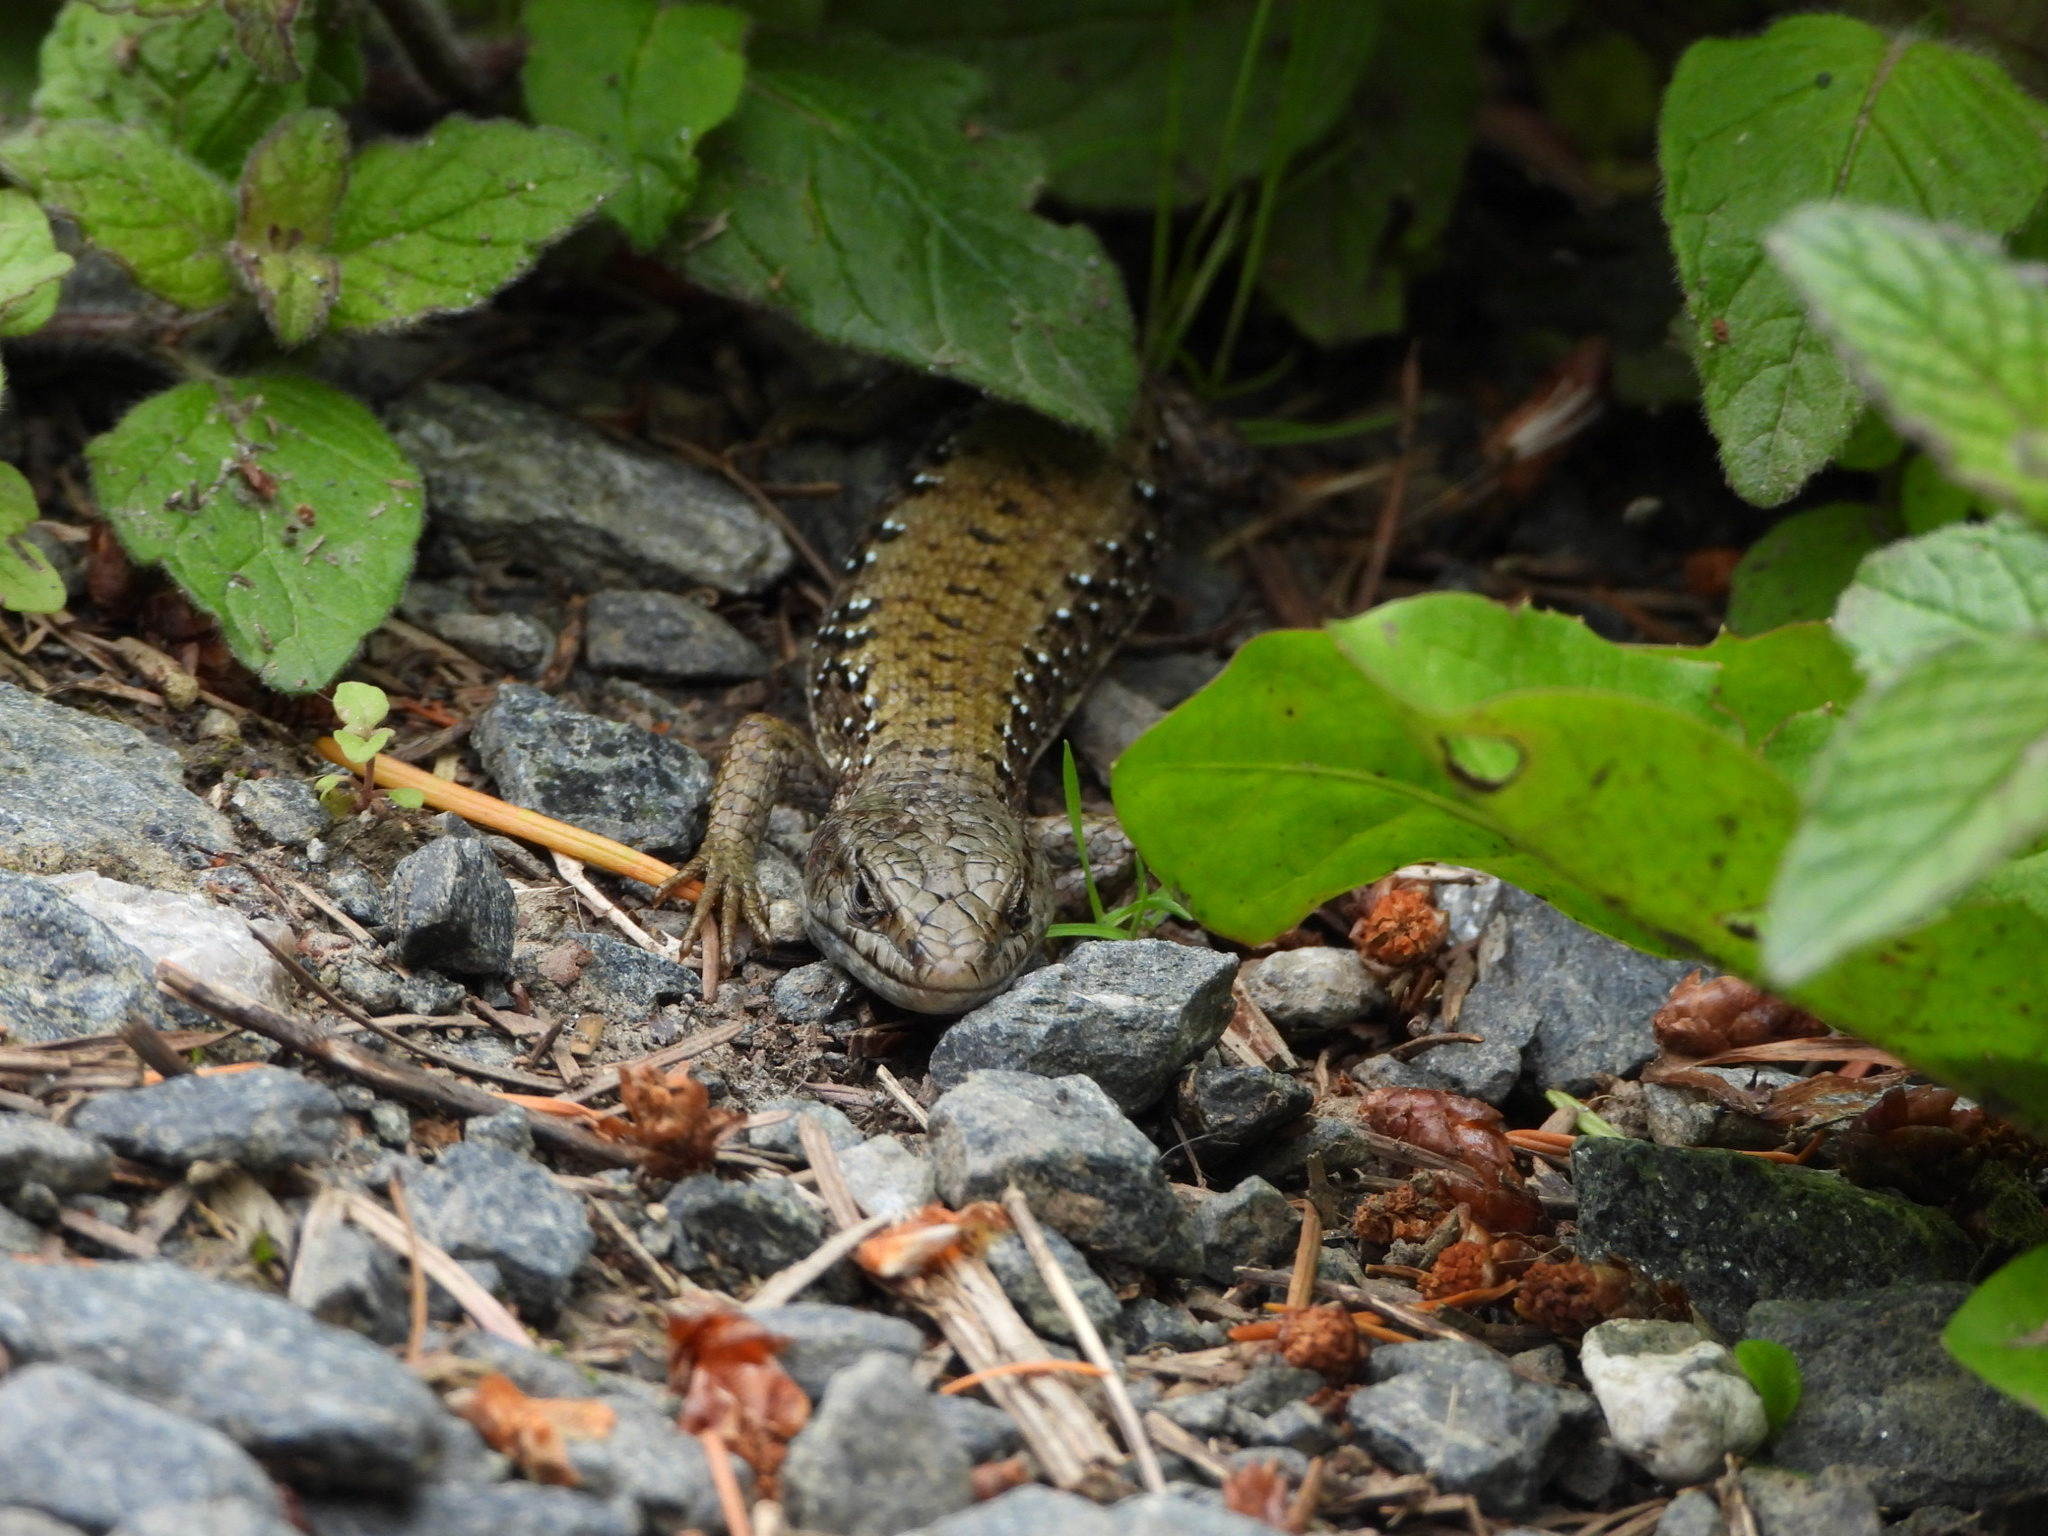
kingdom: Animalia
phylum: Chordata
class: Squamata
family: Anguidae
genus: Elgaria
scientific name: Elgaria coerulea
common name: Northern alligator lizard
